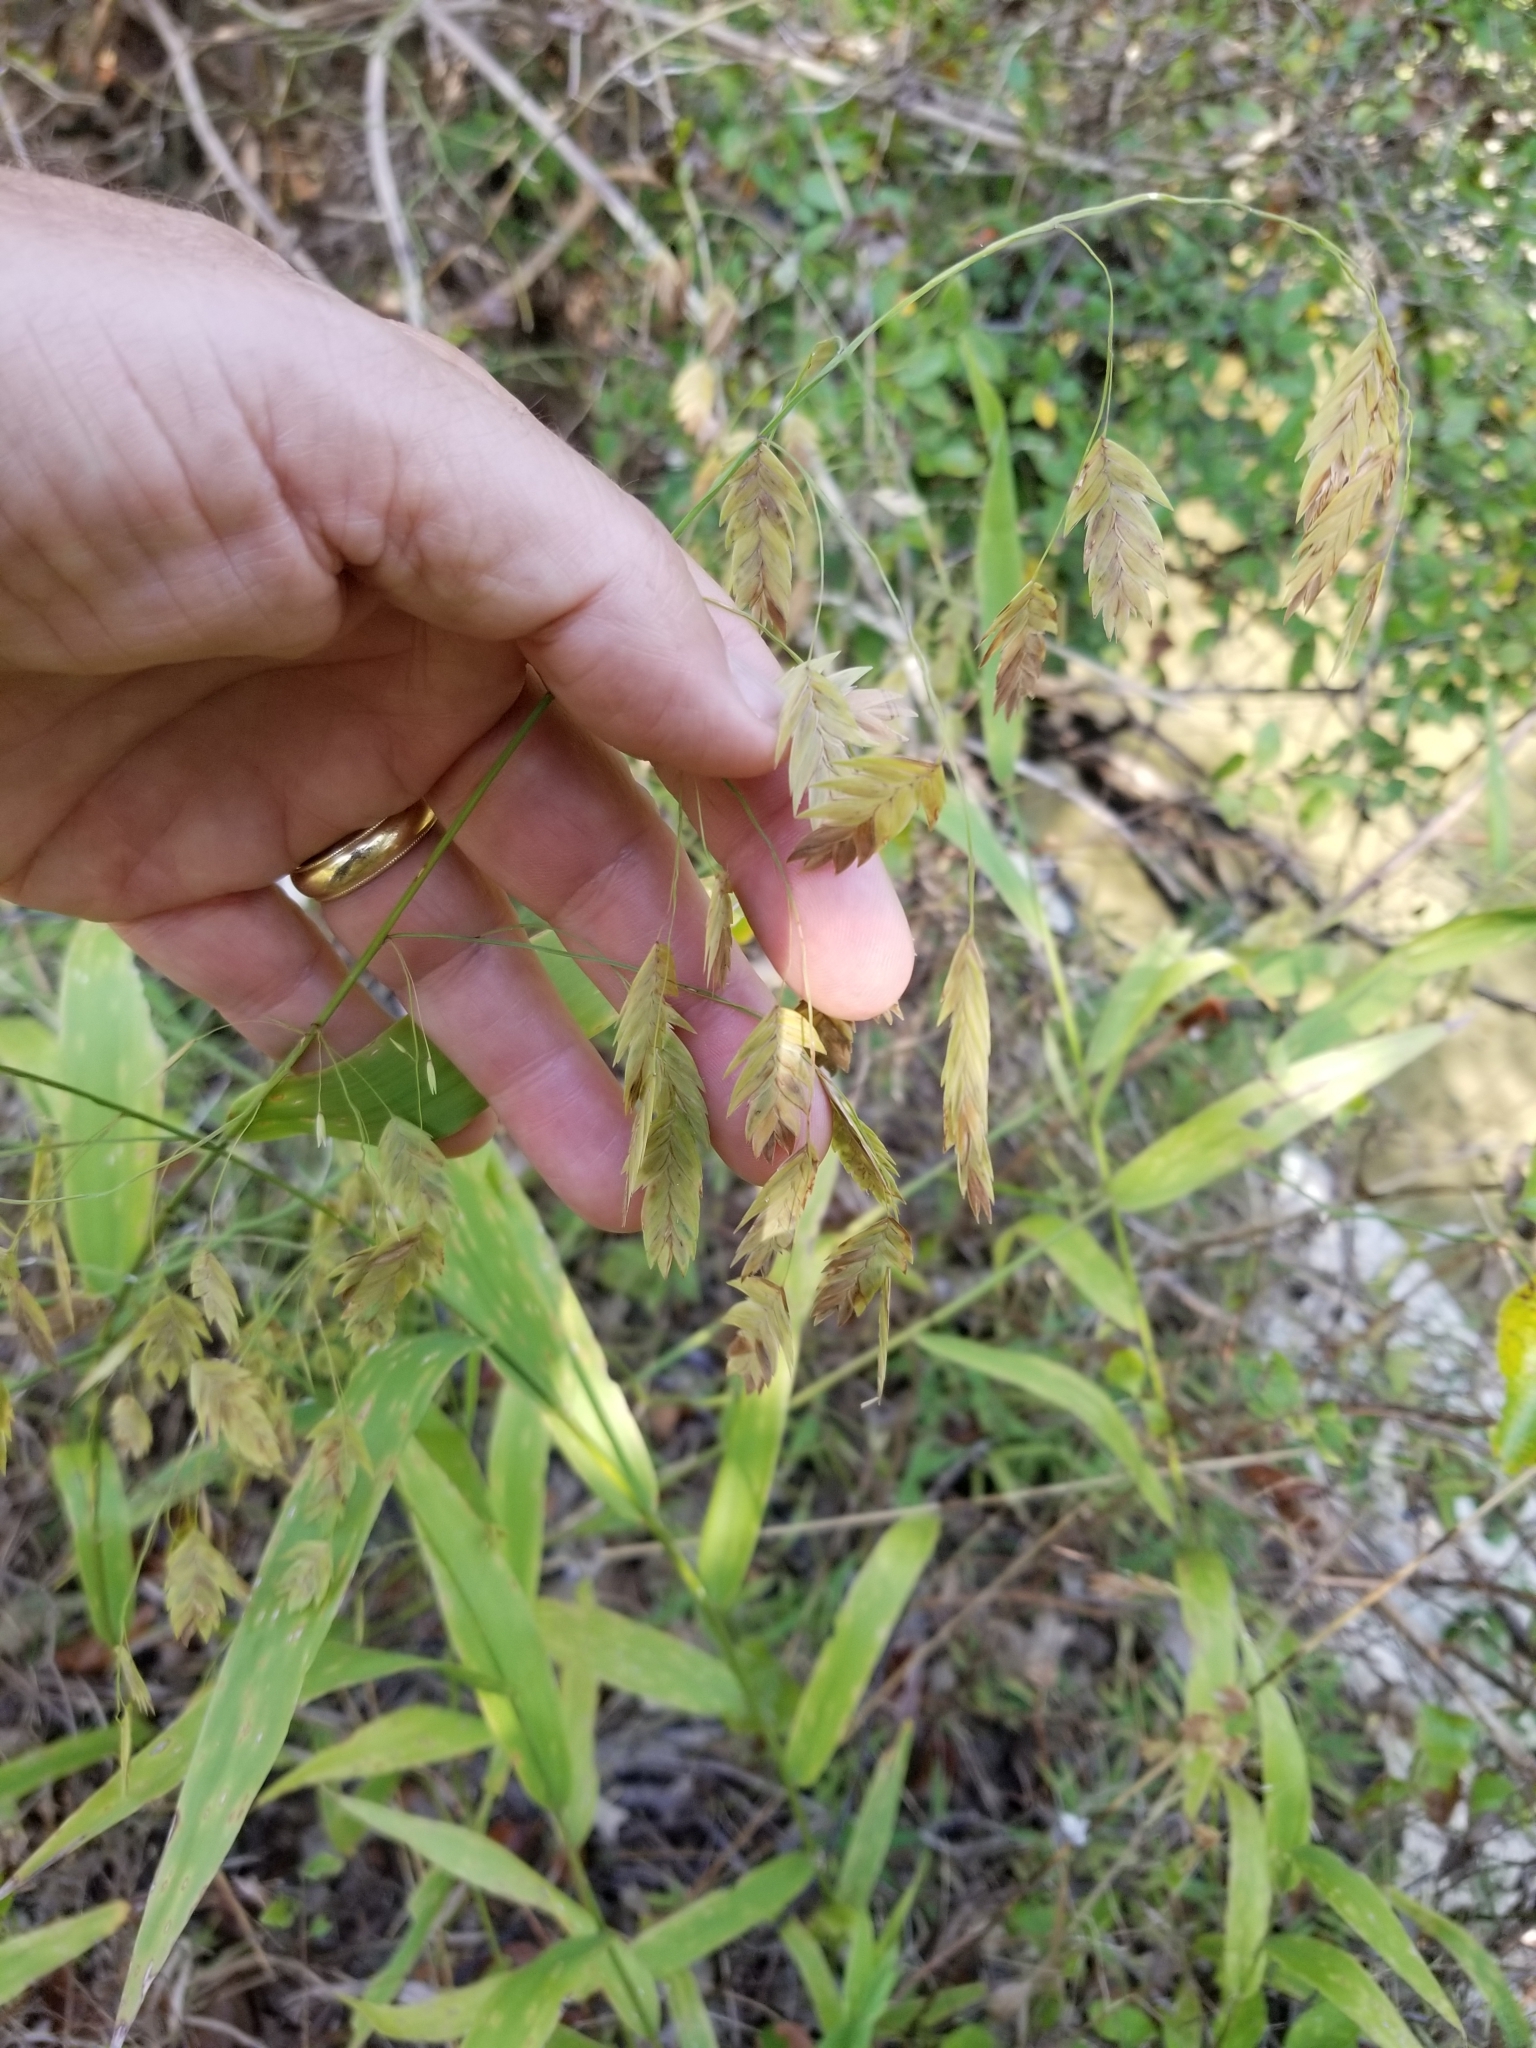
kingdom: Plantae
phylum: Tracheophyta
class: Liliopsida
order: Poales
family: Poaceae
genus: Chasmanthium
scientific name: Chasmanthium latifolium
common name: Broad-leaved chasmanthium
